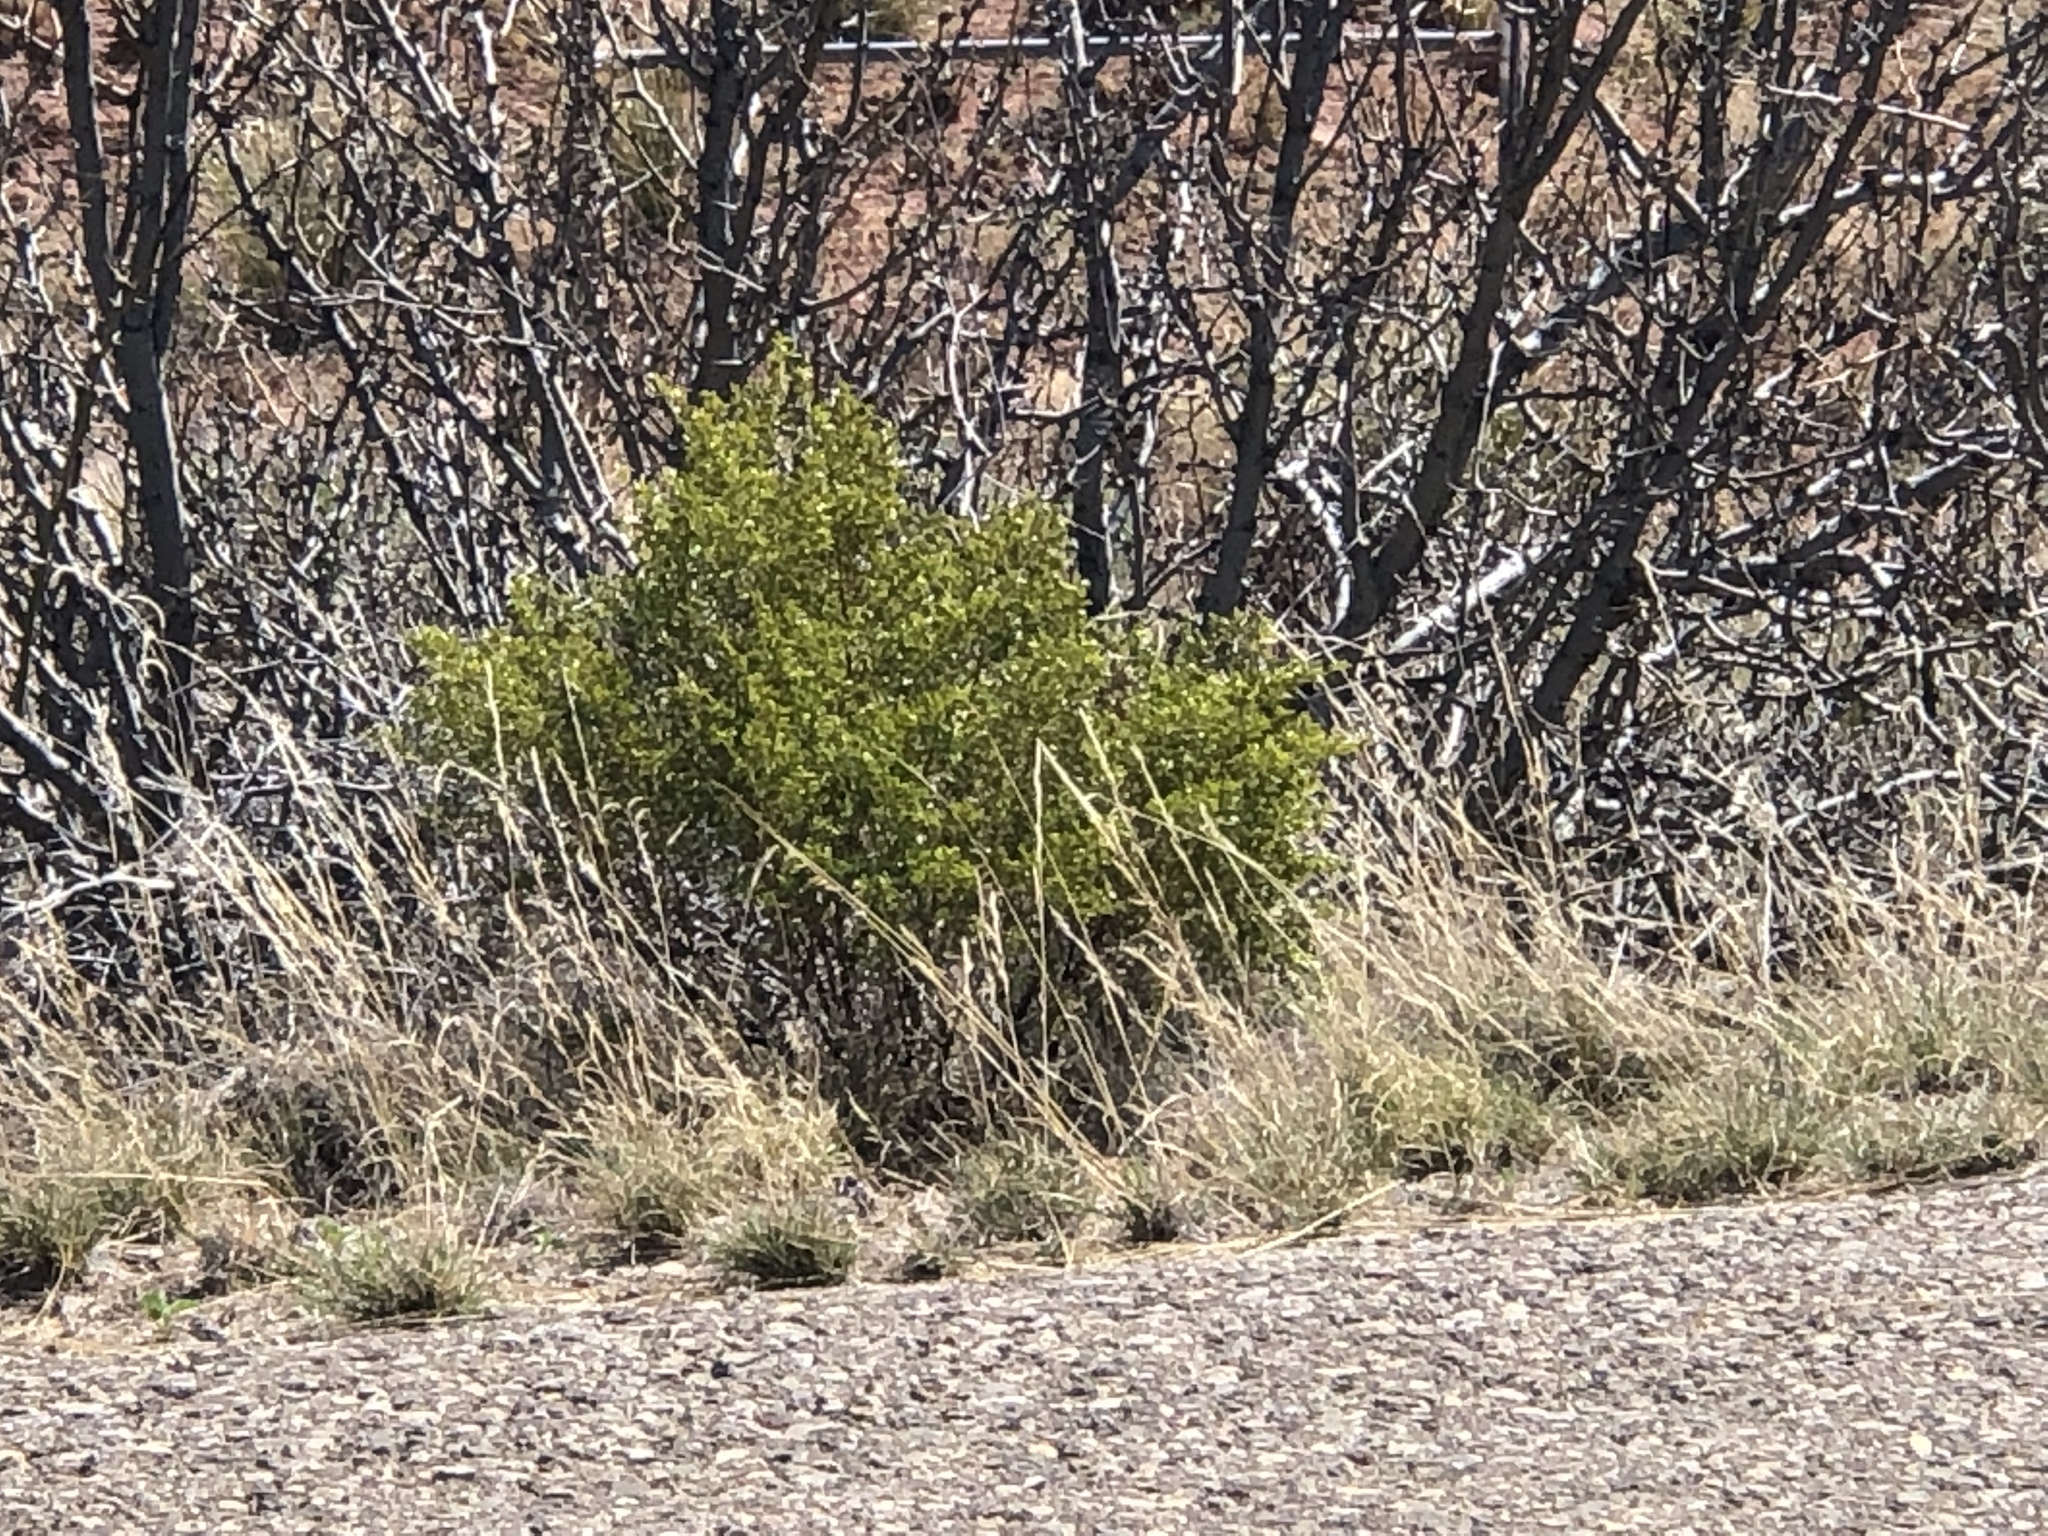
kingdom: Plantae
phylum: Tracheophyta
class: Magnoliopsida
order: Zygophyllales
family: Zygophyllaceae
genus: Larrea
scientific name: Larrea tridentata
